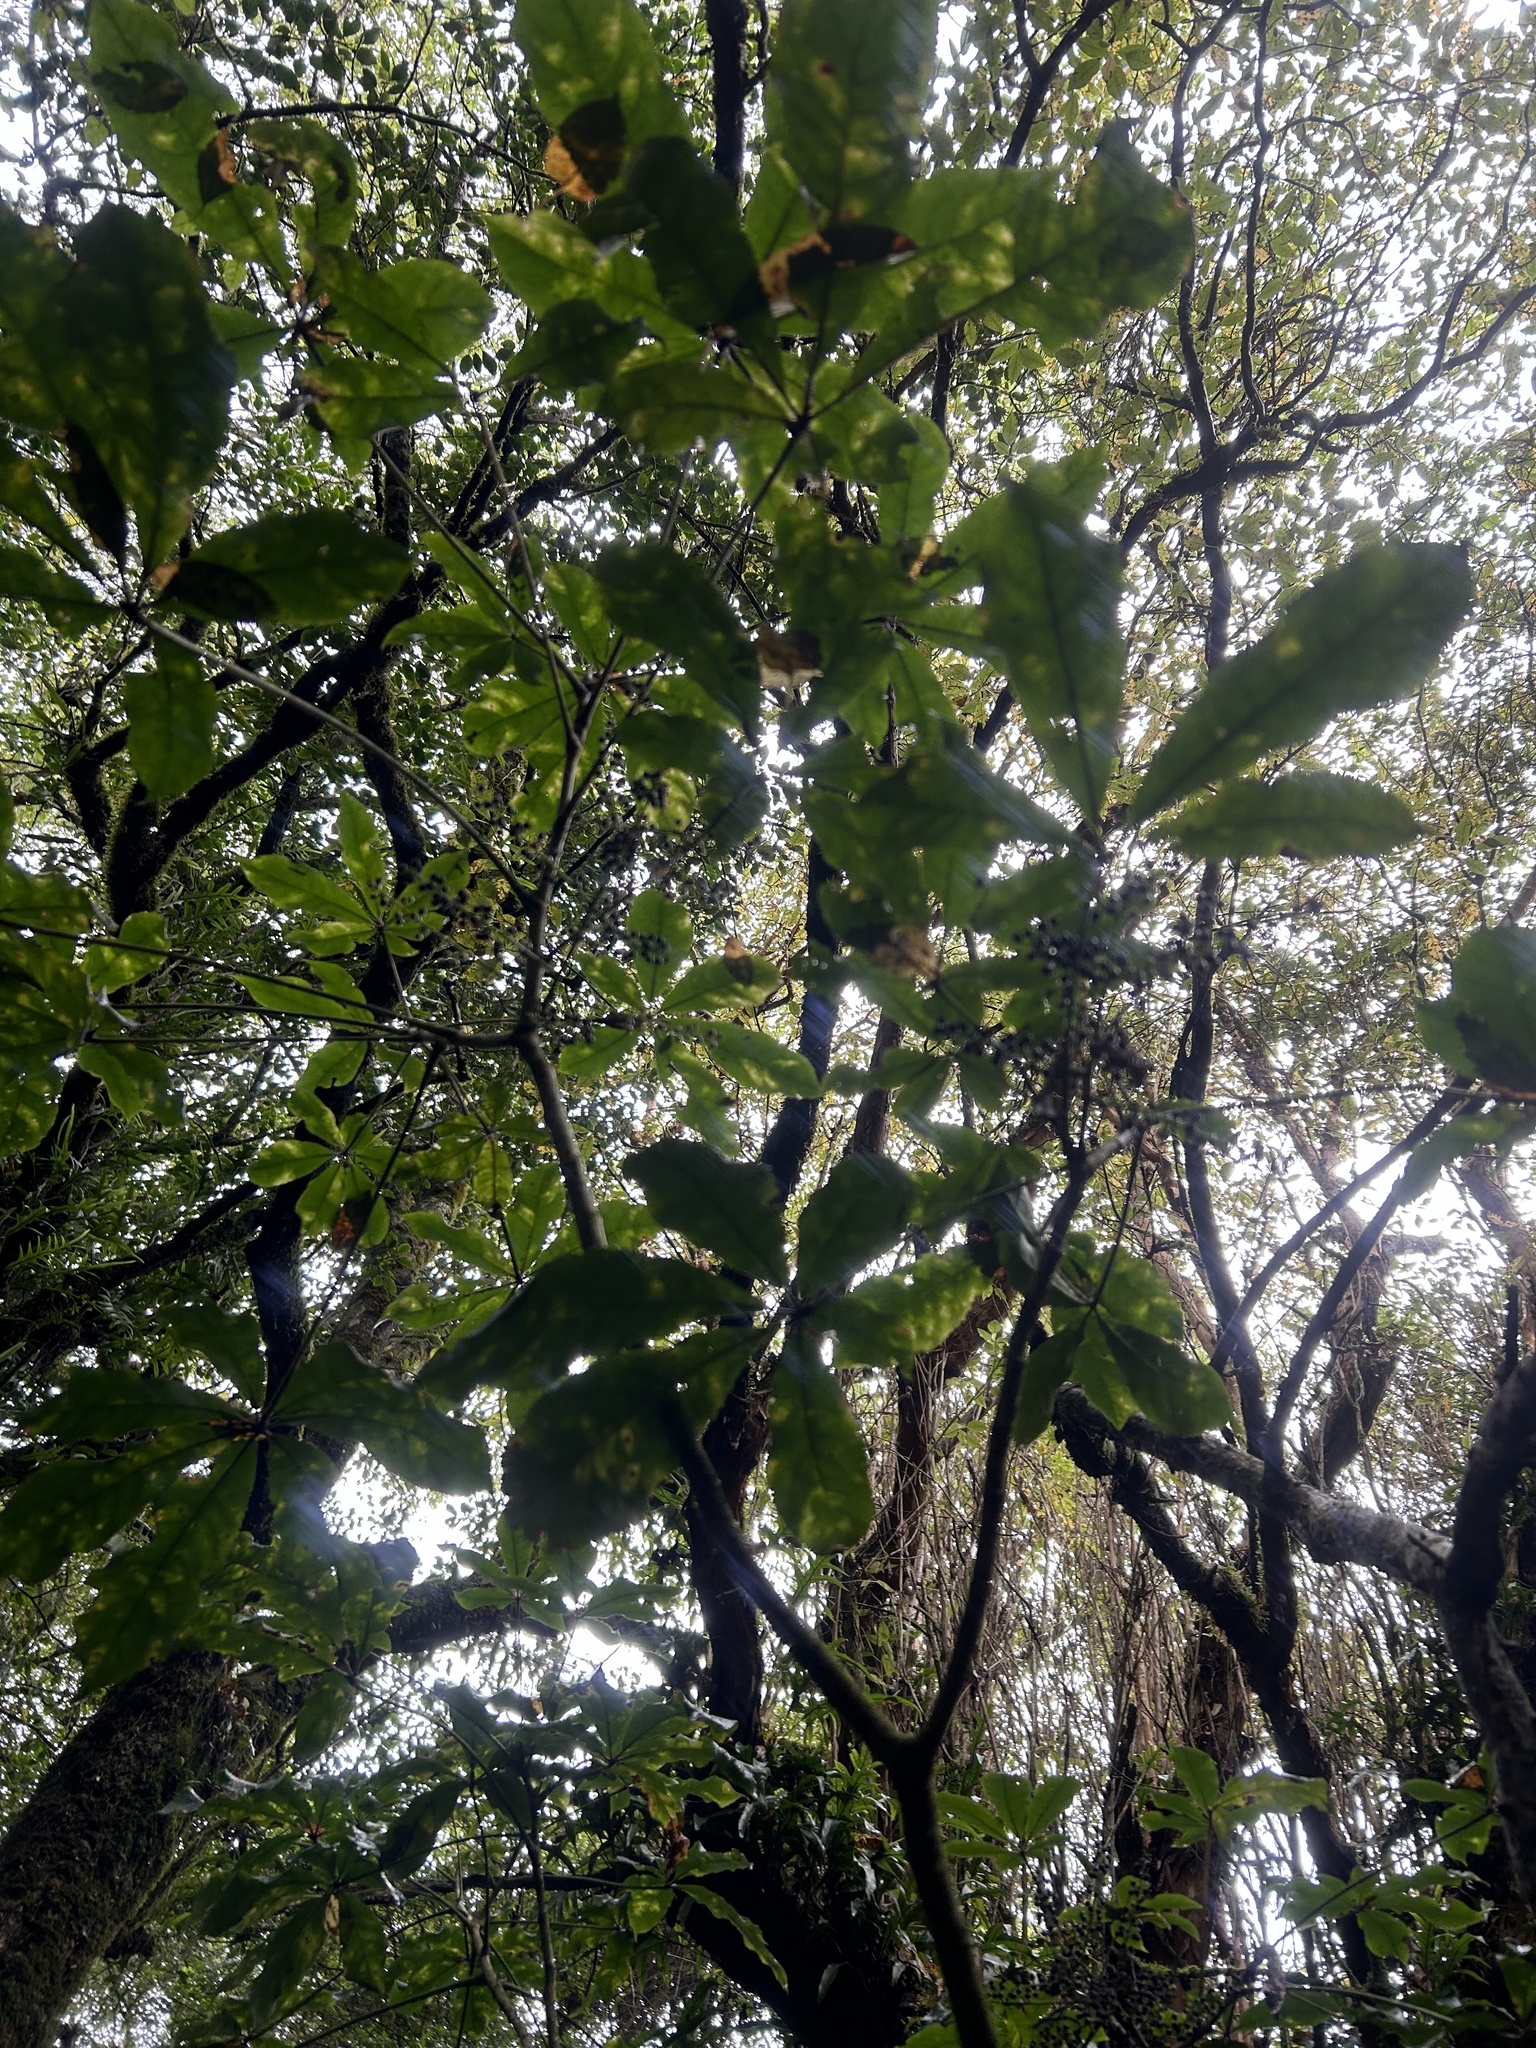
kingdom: Plantae
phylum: Tracheophyta
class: Magnoliopsida
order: Apiales
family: Araliaceae
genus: Schefflera
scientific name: Schefflera digitata
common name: Pate
